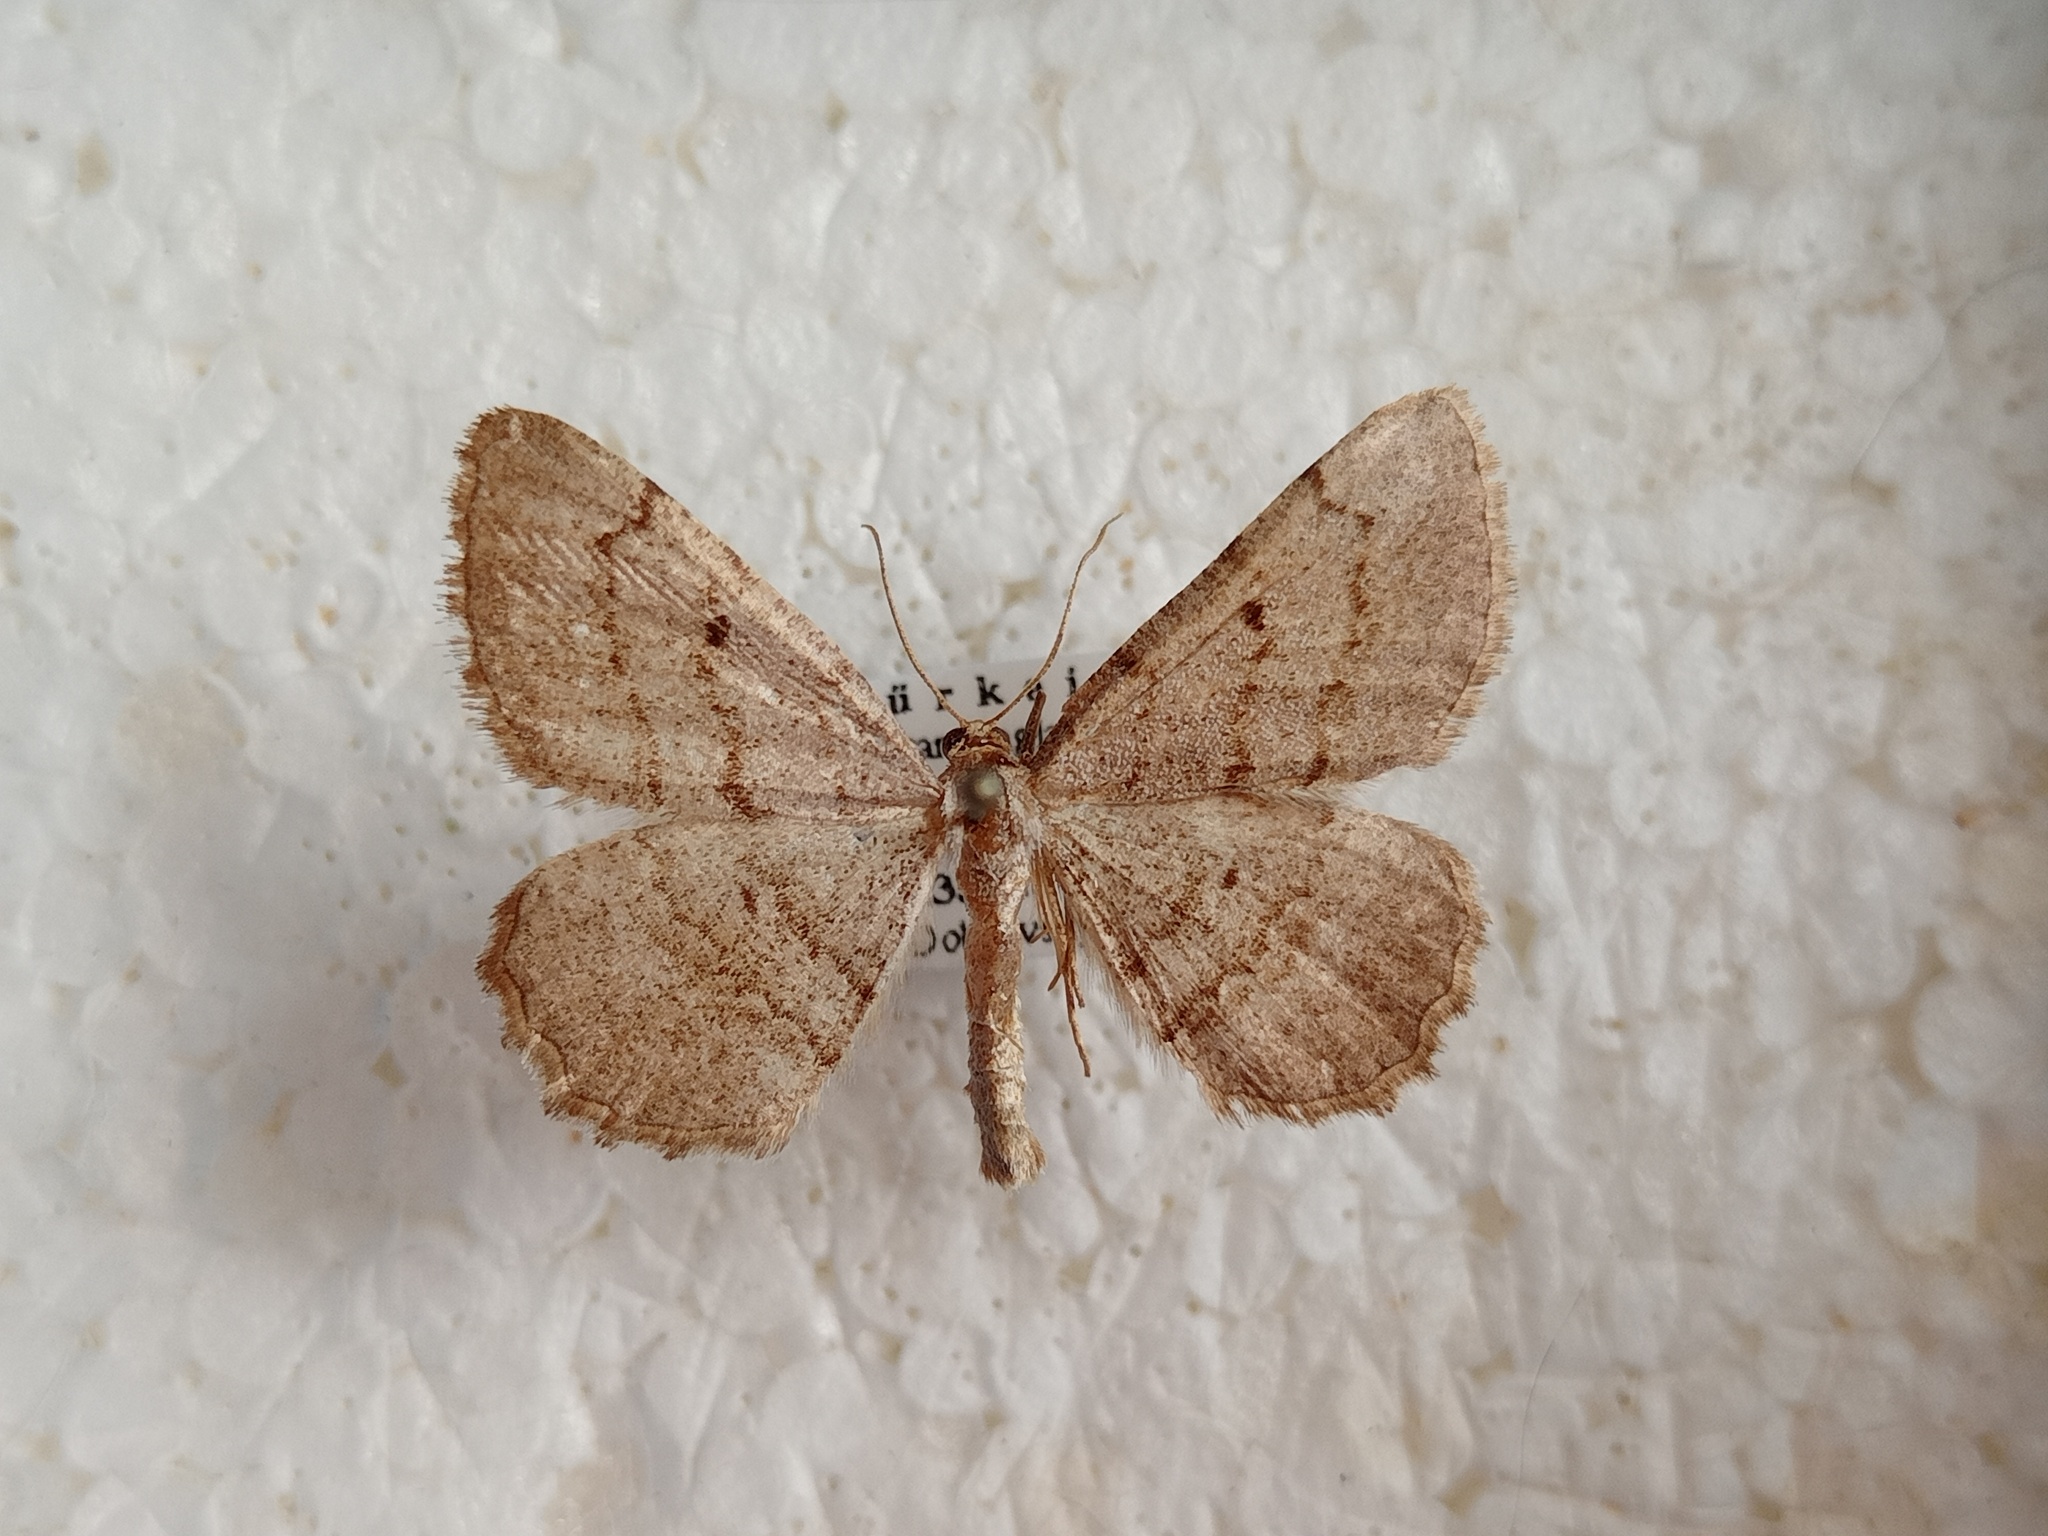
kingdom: Animalia
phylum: Arthropoda
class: Insecta
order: Lepidoptera
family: Geometridae
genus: Stueningia
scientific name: Stueningia taurica
